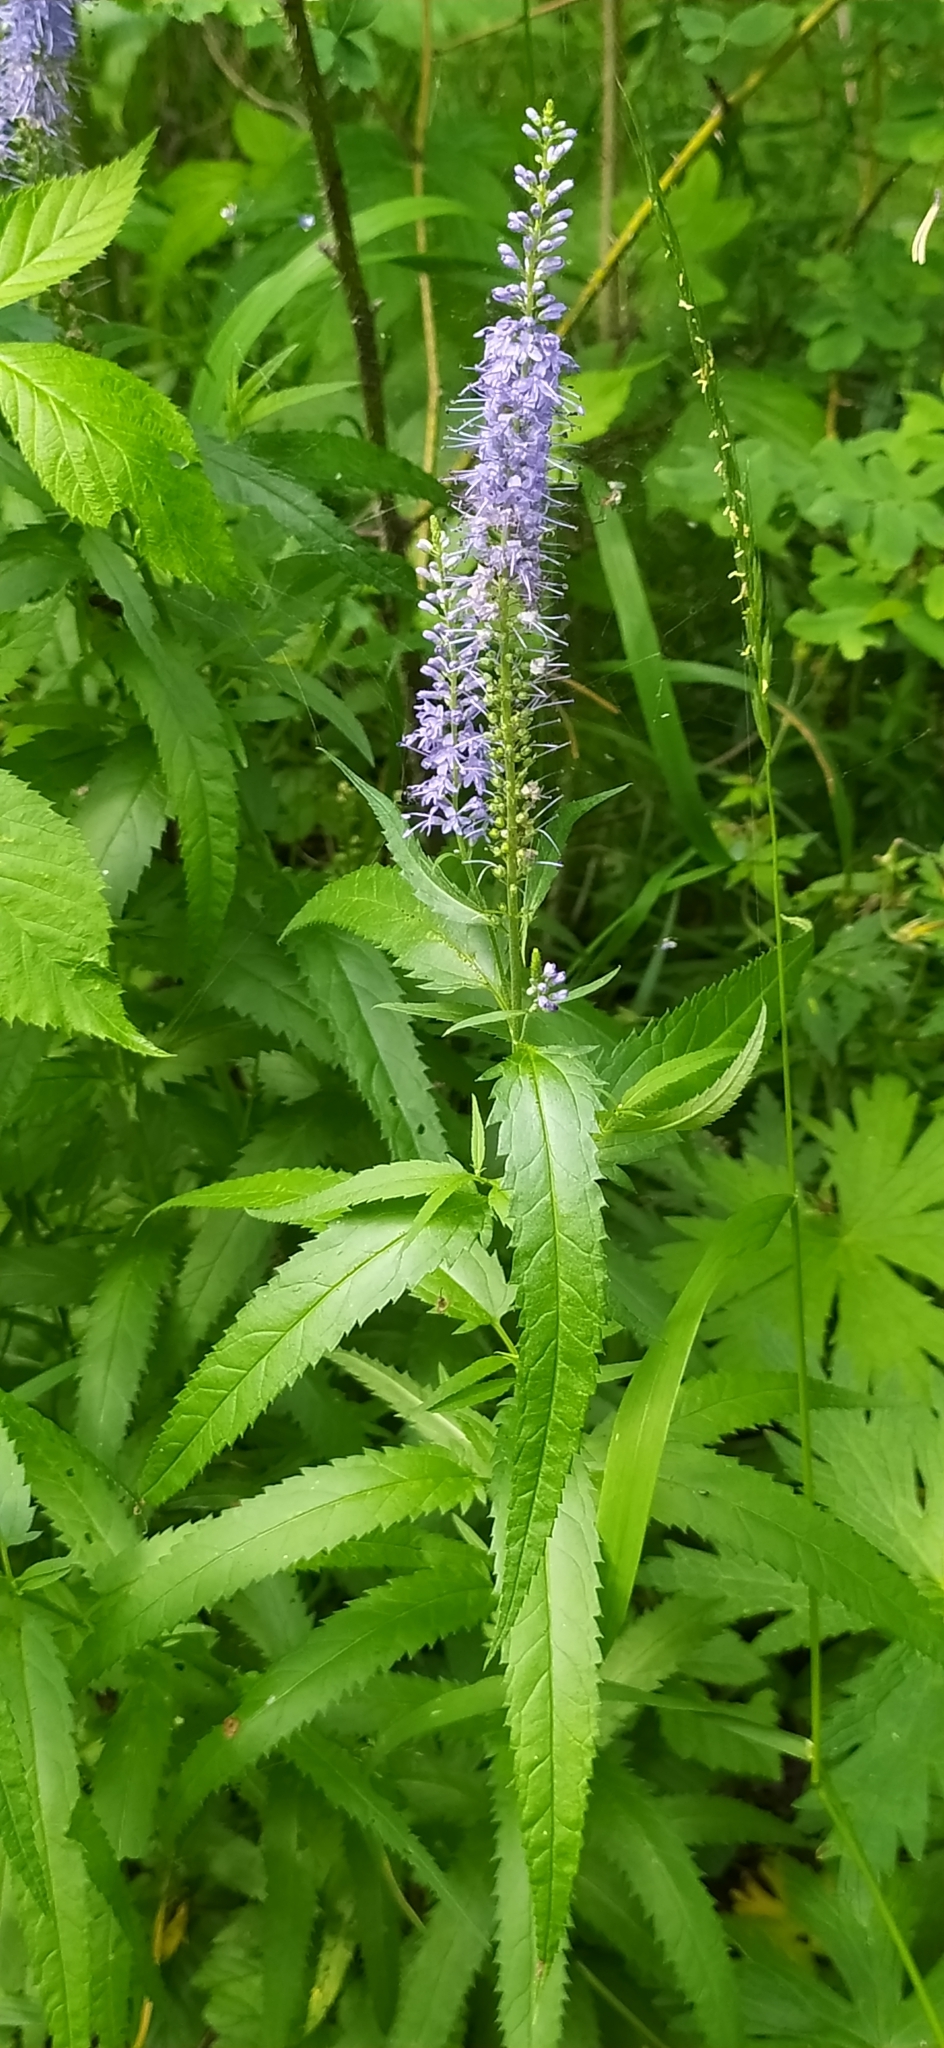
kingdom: Plantae
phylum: Tracheophyta
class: Magnoliopsida
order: Lamiales
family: Plantaginaceae
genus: Veronica
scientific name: Veronica longifolia
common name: Garden speedwell
